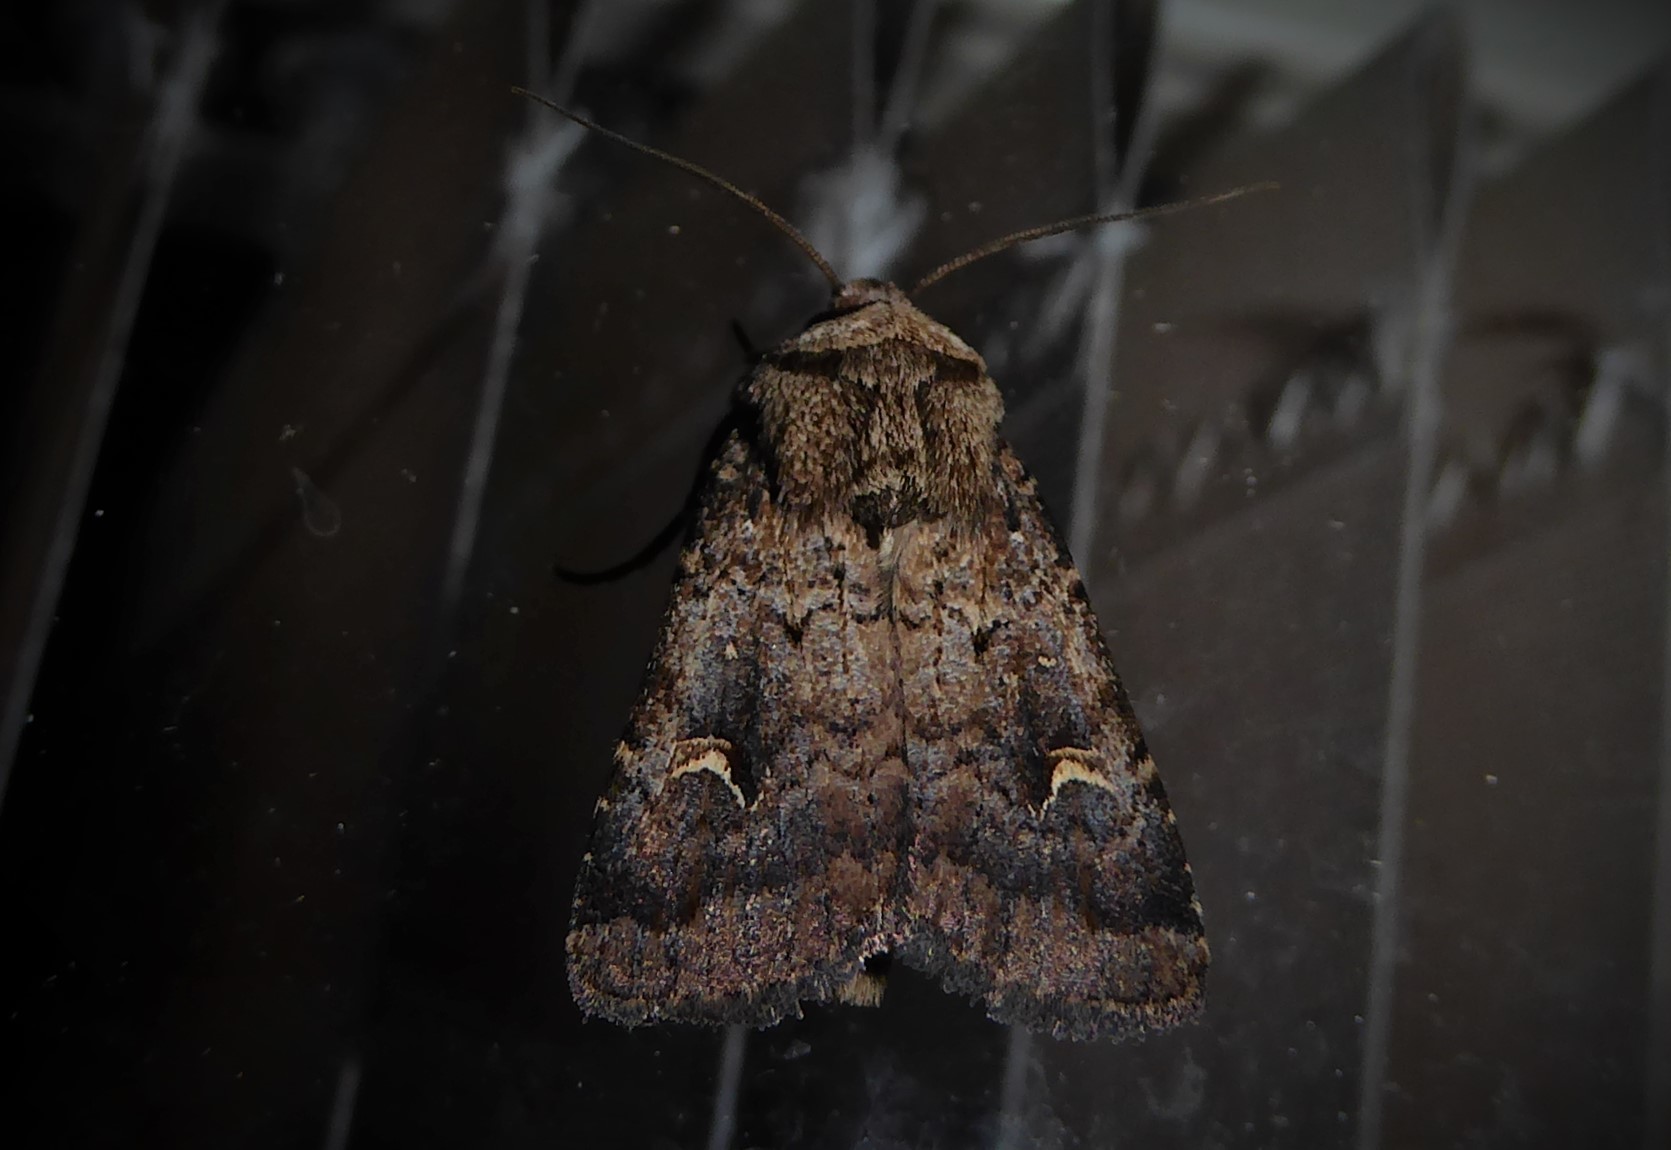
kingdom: Animalia
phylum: Arthropoda
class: Insecta
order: Lepidoptera
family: Noctuidae
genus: Proteuxoa
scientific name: Proteuxoa tetronycha
